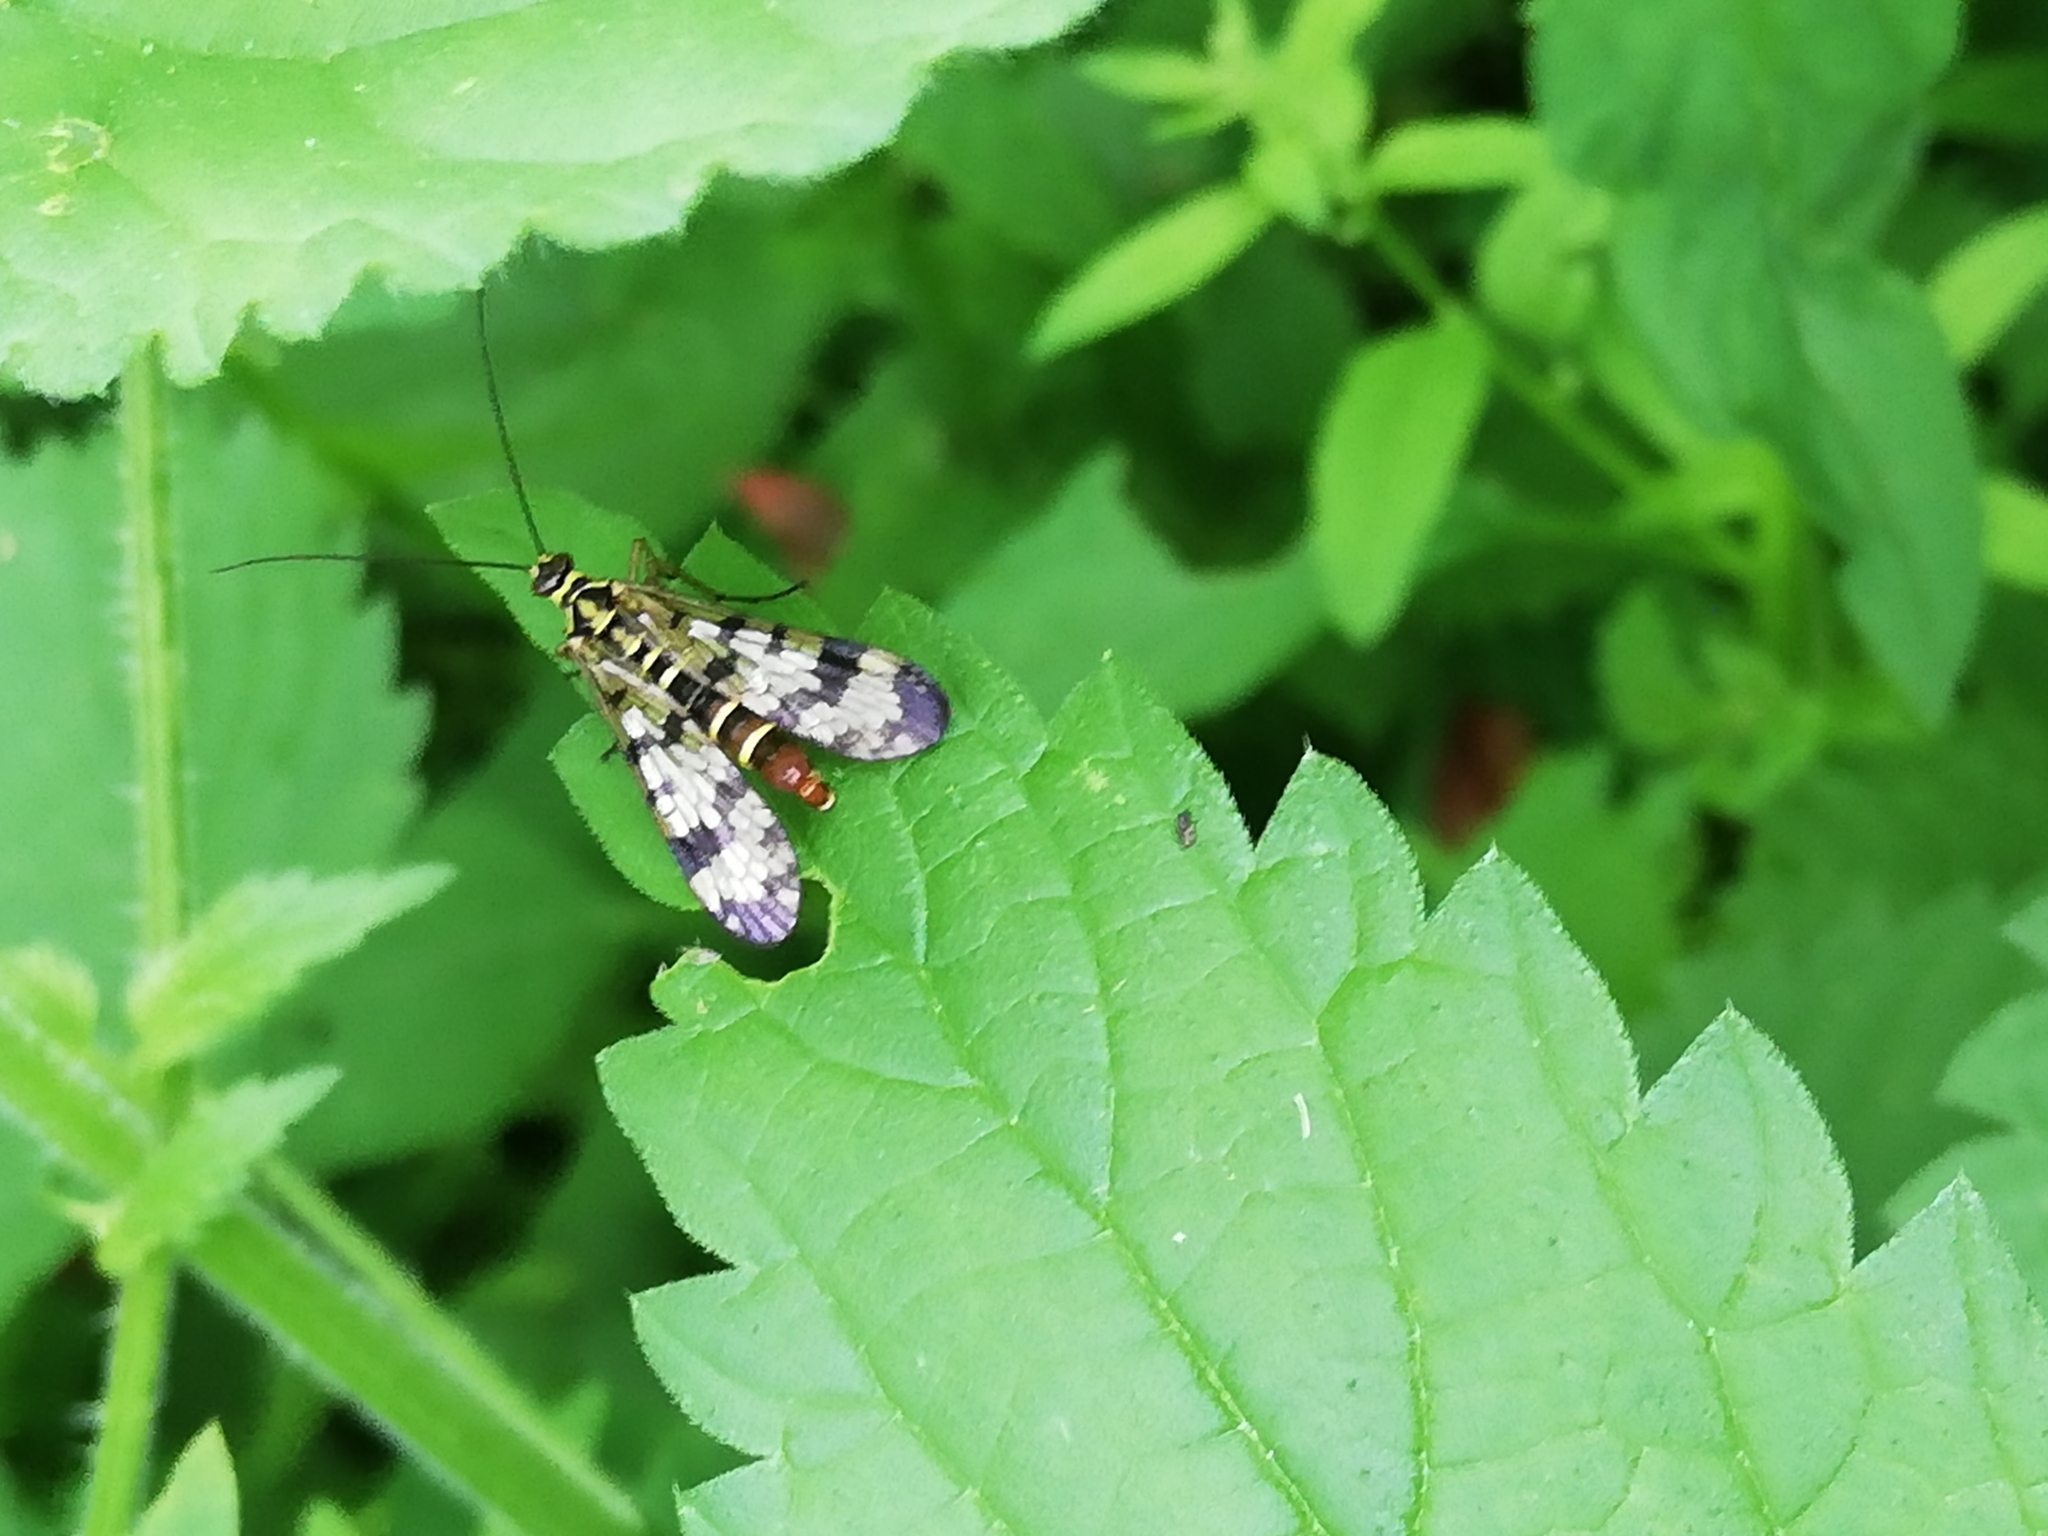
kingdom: Animalia
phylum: Arthropoda
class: Insecta
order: Mecoptera
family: Panorpidae
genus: Panorpa
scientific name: Panorpa communis
